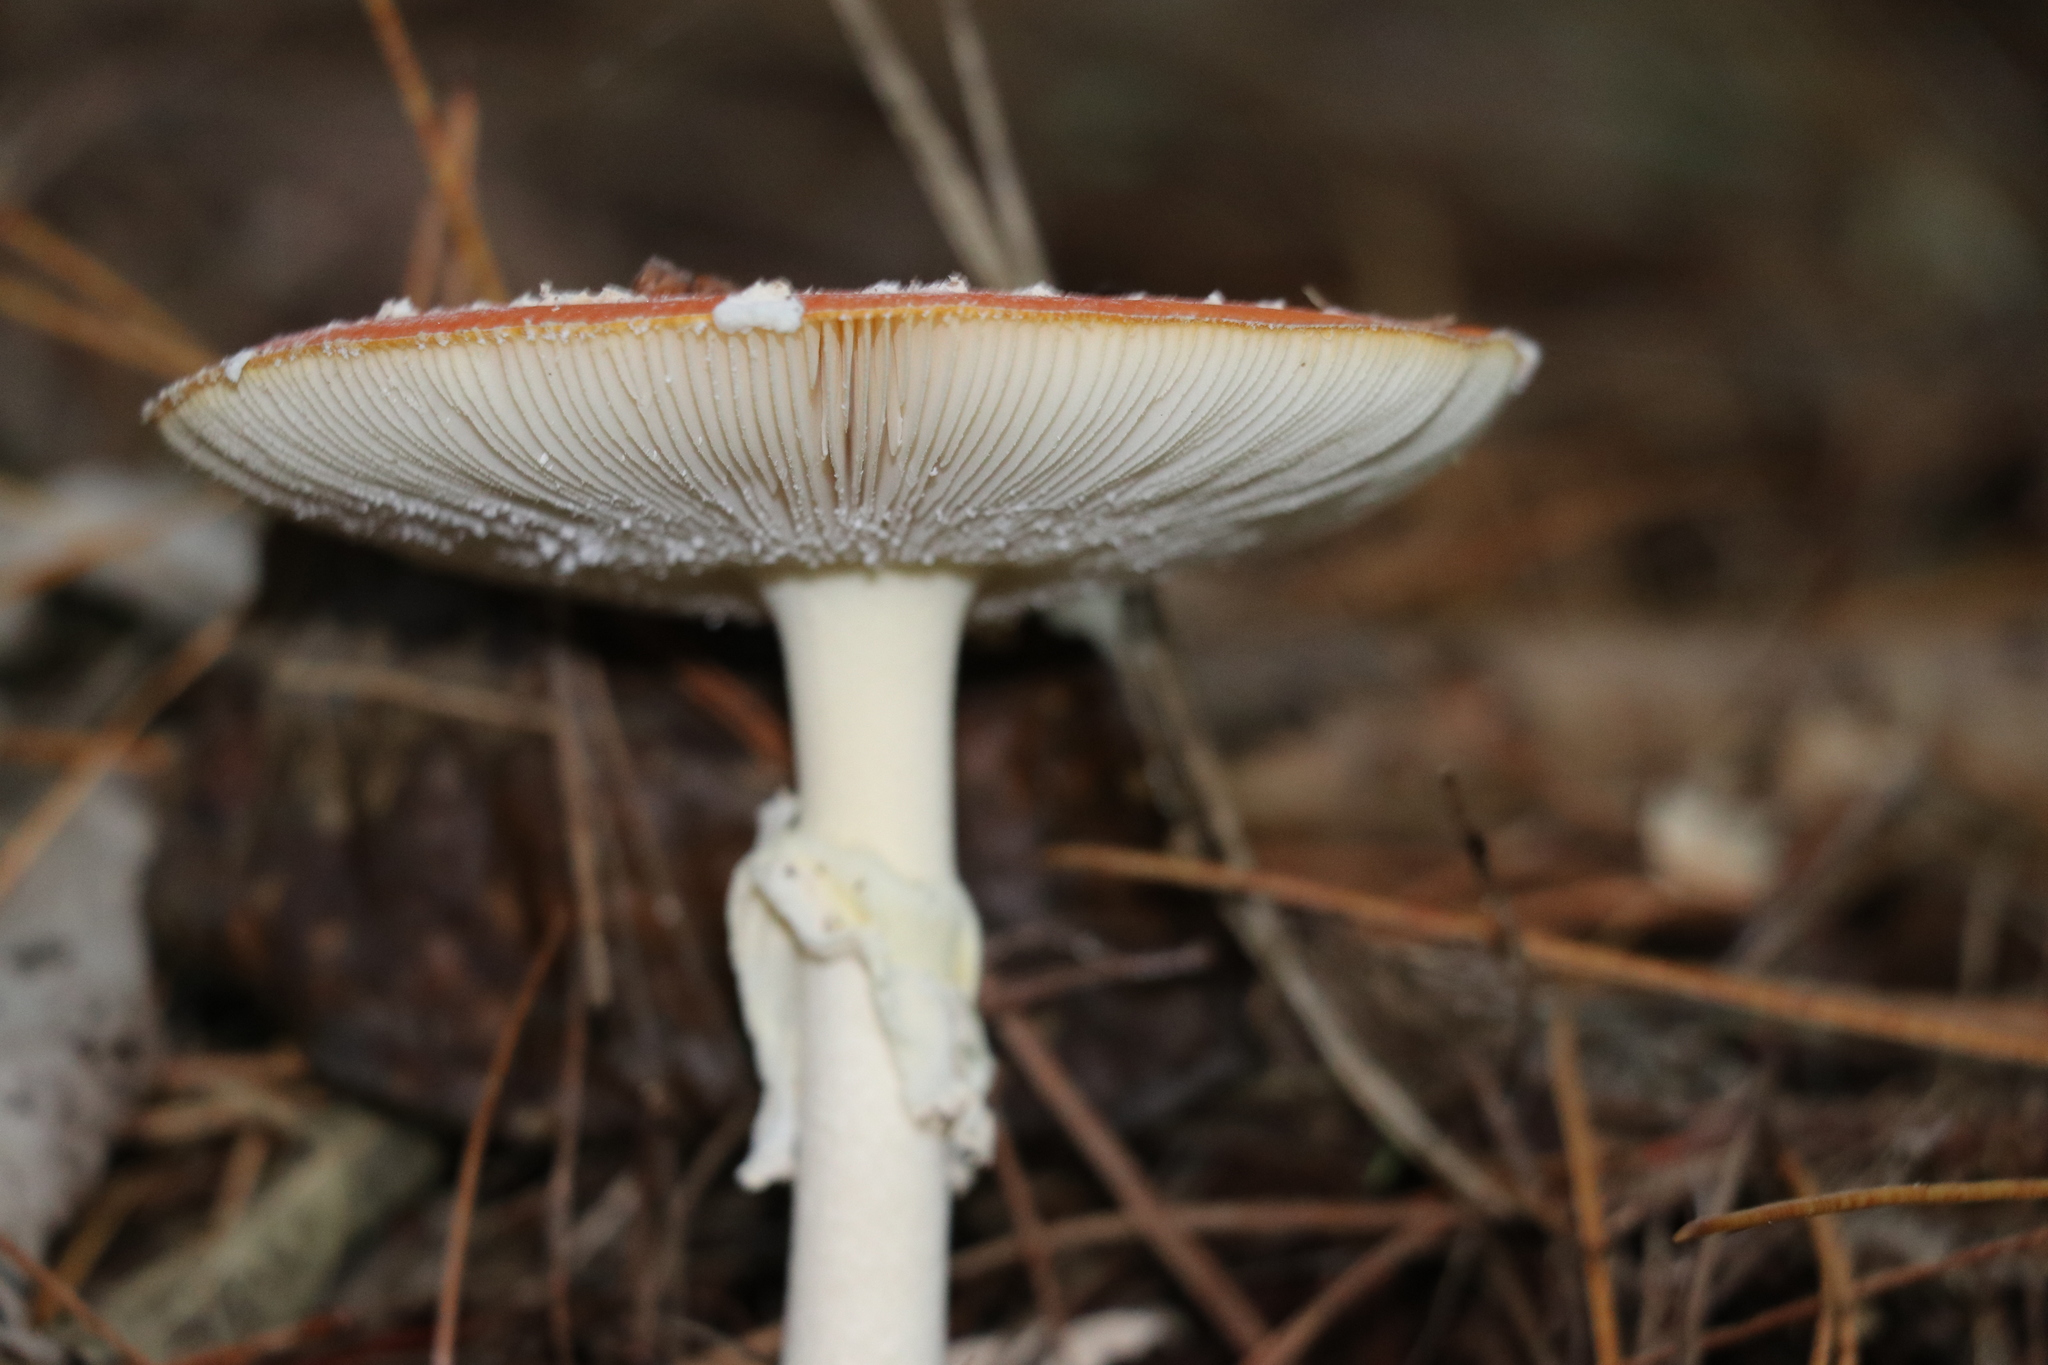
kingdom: Fungi
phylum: Basidiomycota
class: Agaricomycetes
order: Agaricales
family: Amanitaceae
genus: Amanita
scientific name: Amanita muscaria
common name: Fly agaric
